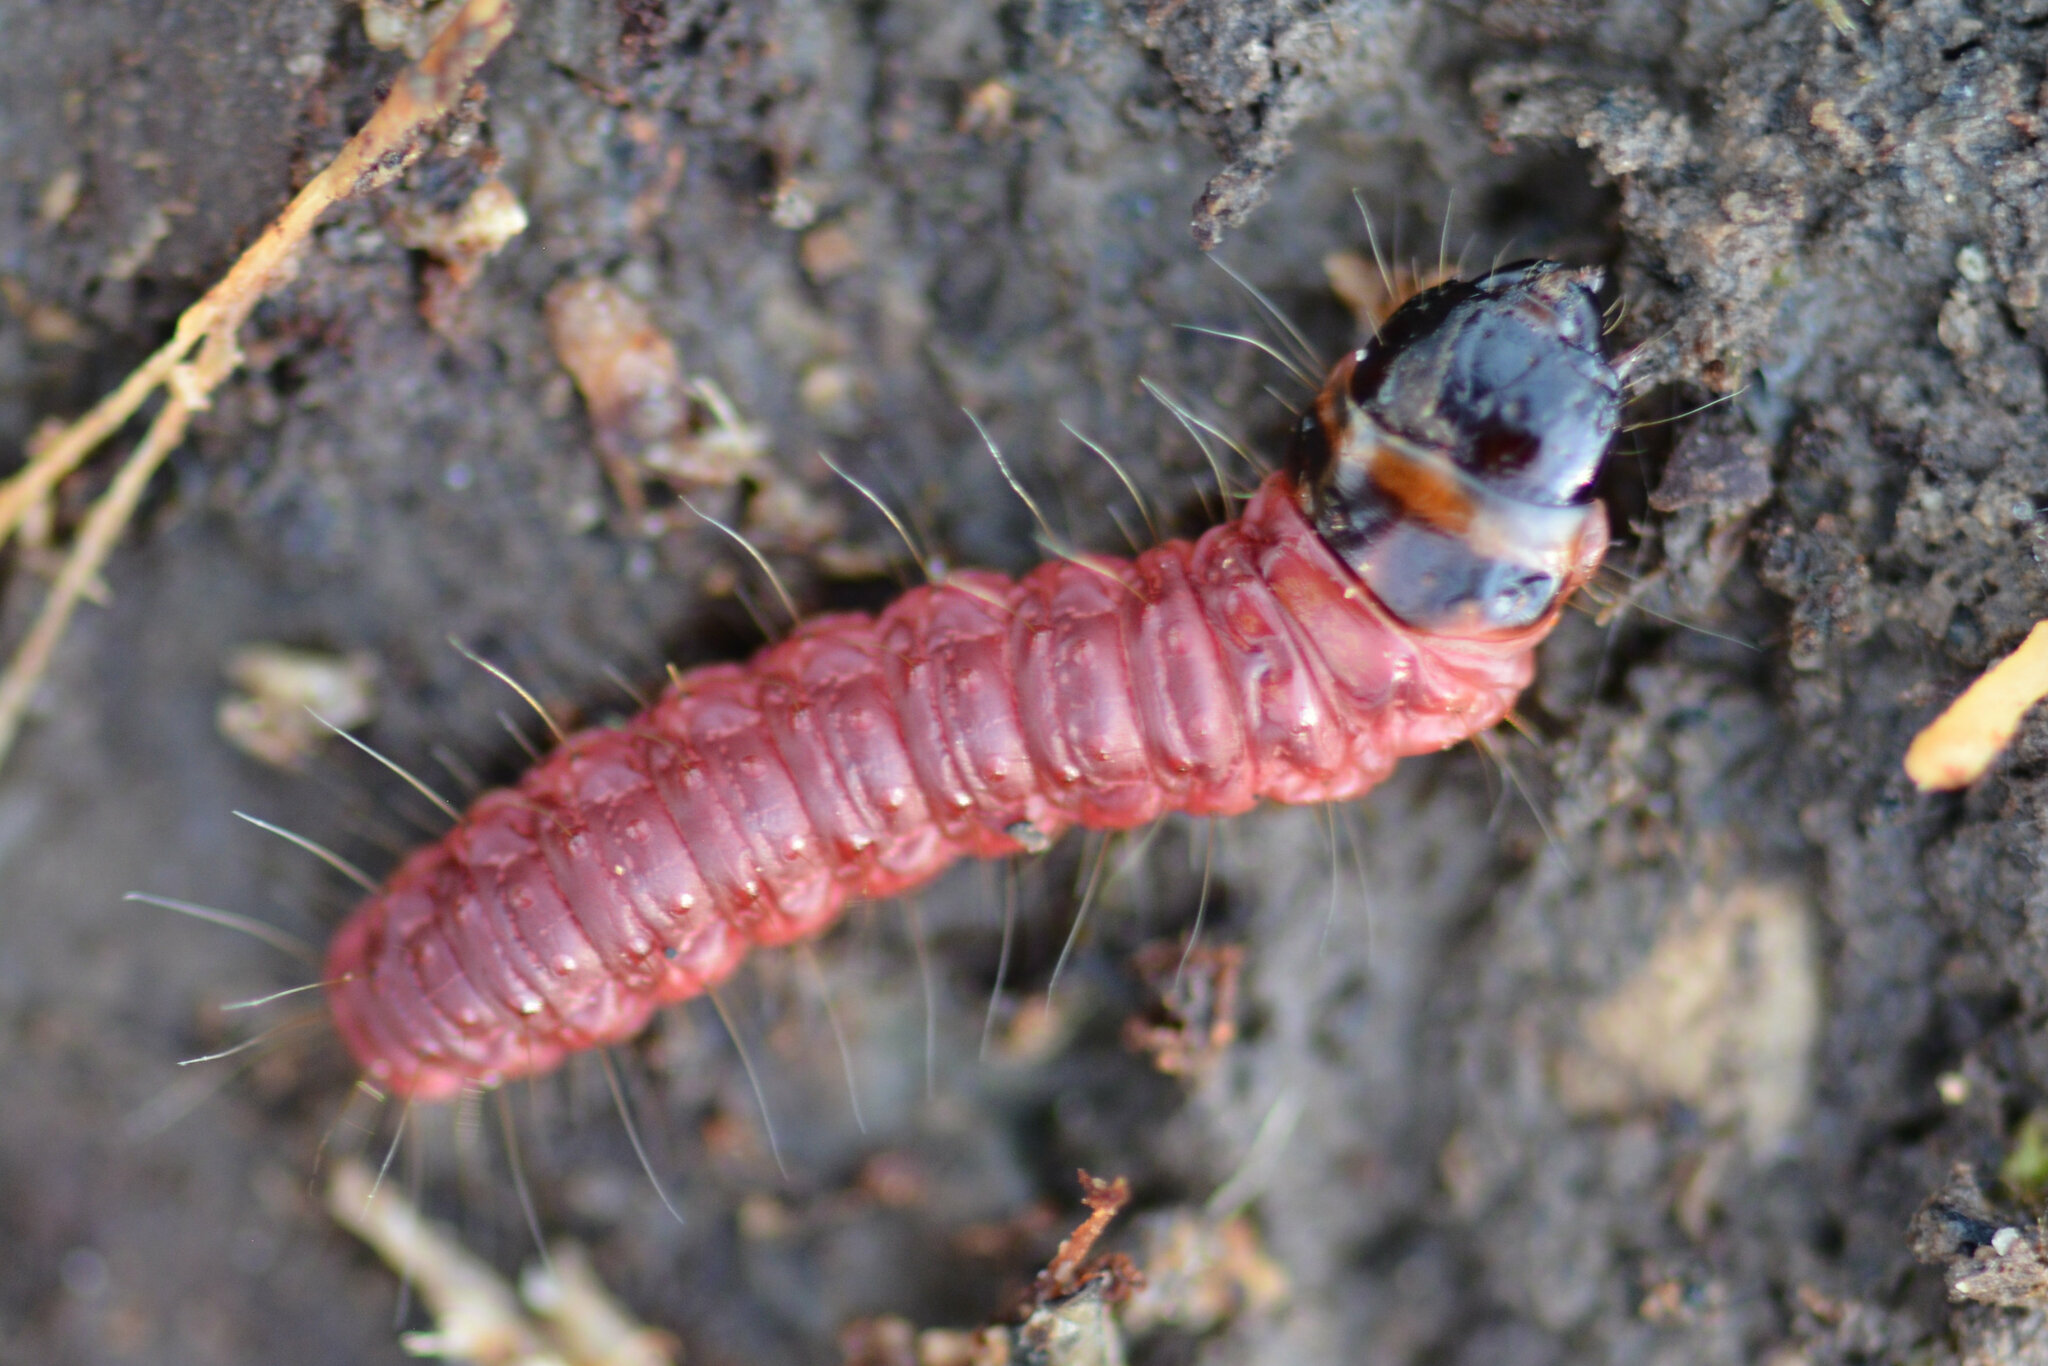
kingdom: Animalia
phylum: Arthropoda
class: Insecta
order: Lepidoptera
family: Cossidae
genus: Cossus
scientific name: Cossus cossus
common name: Goat moth
